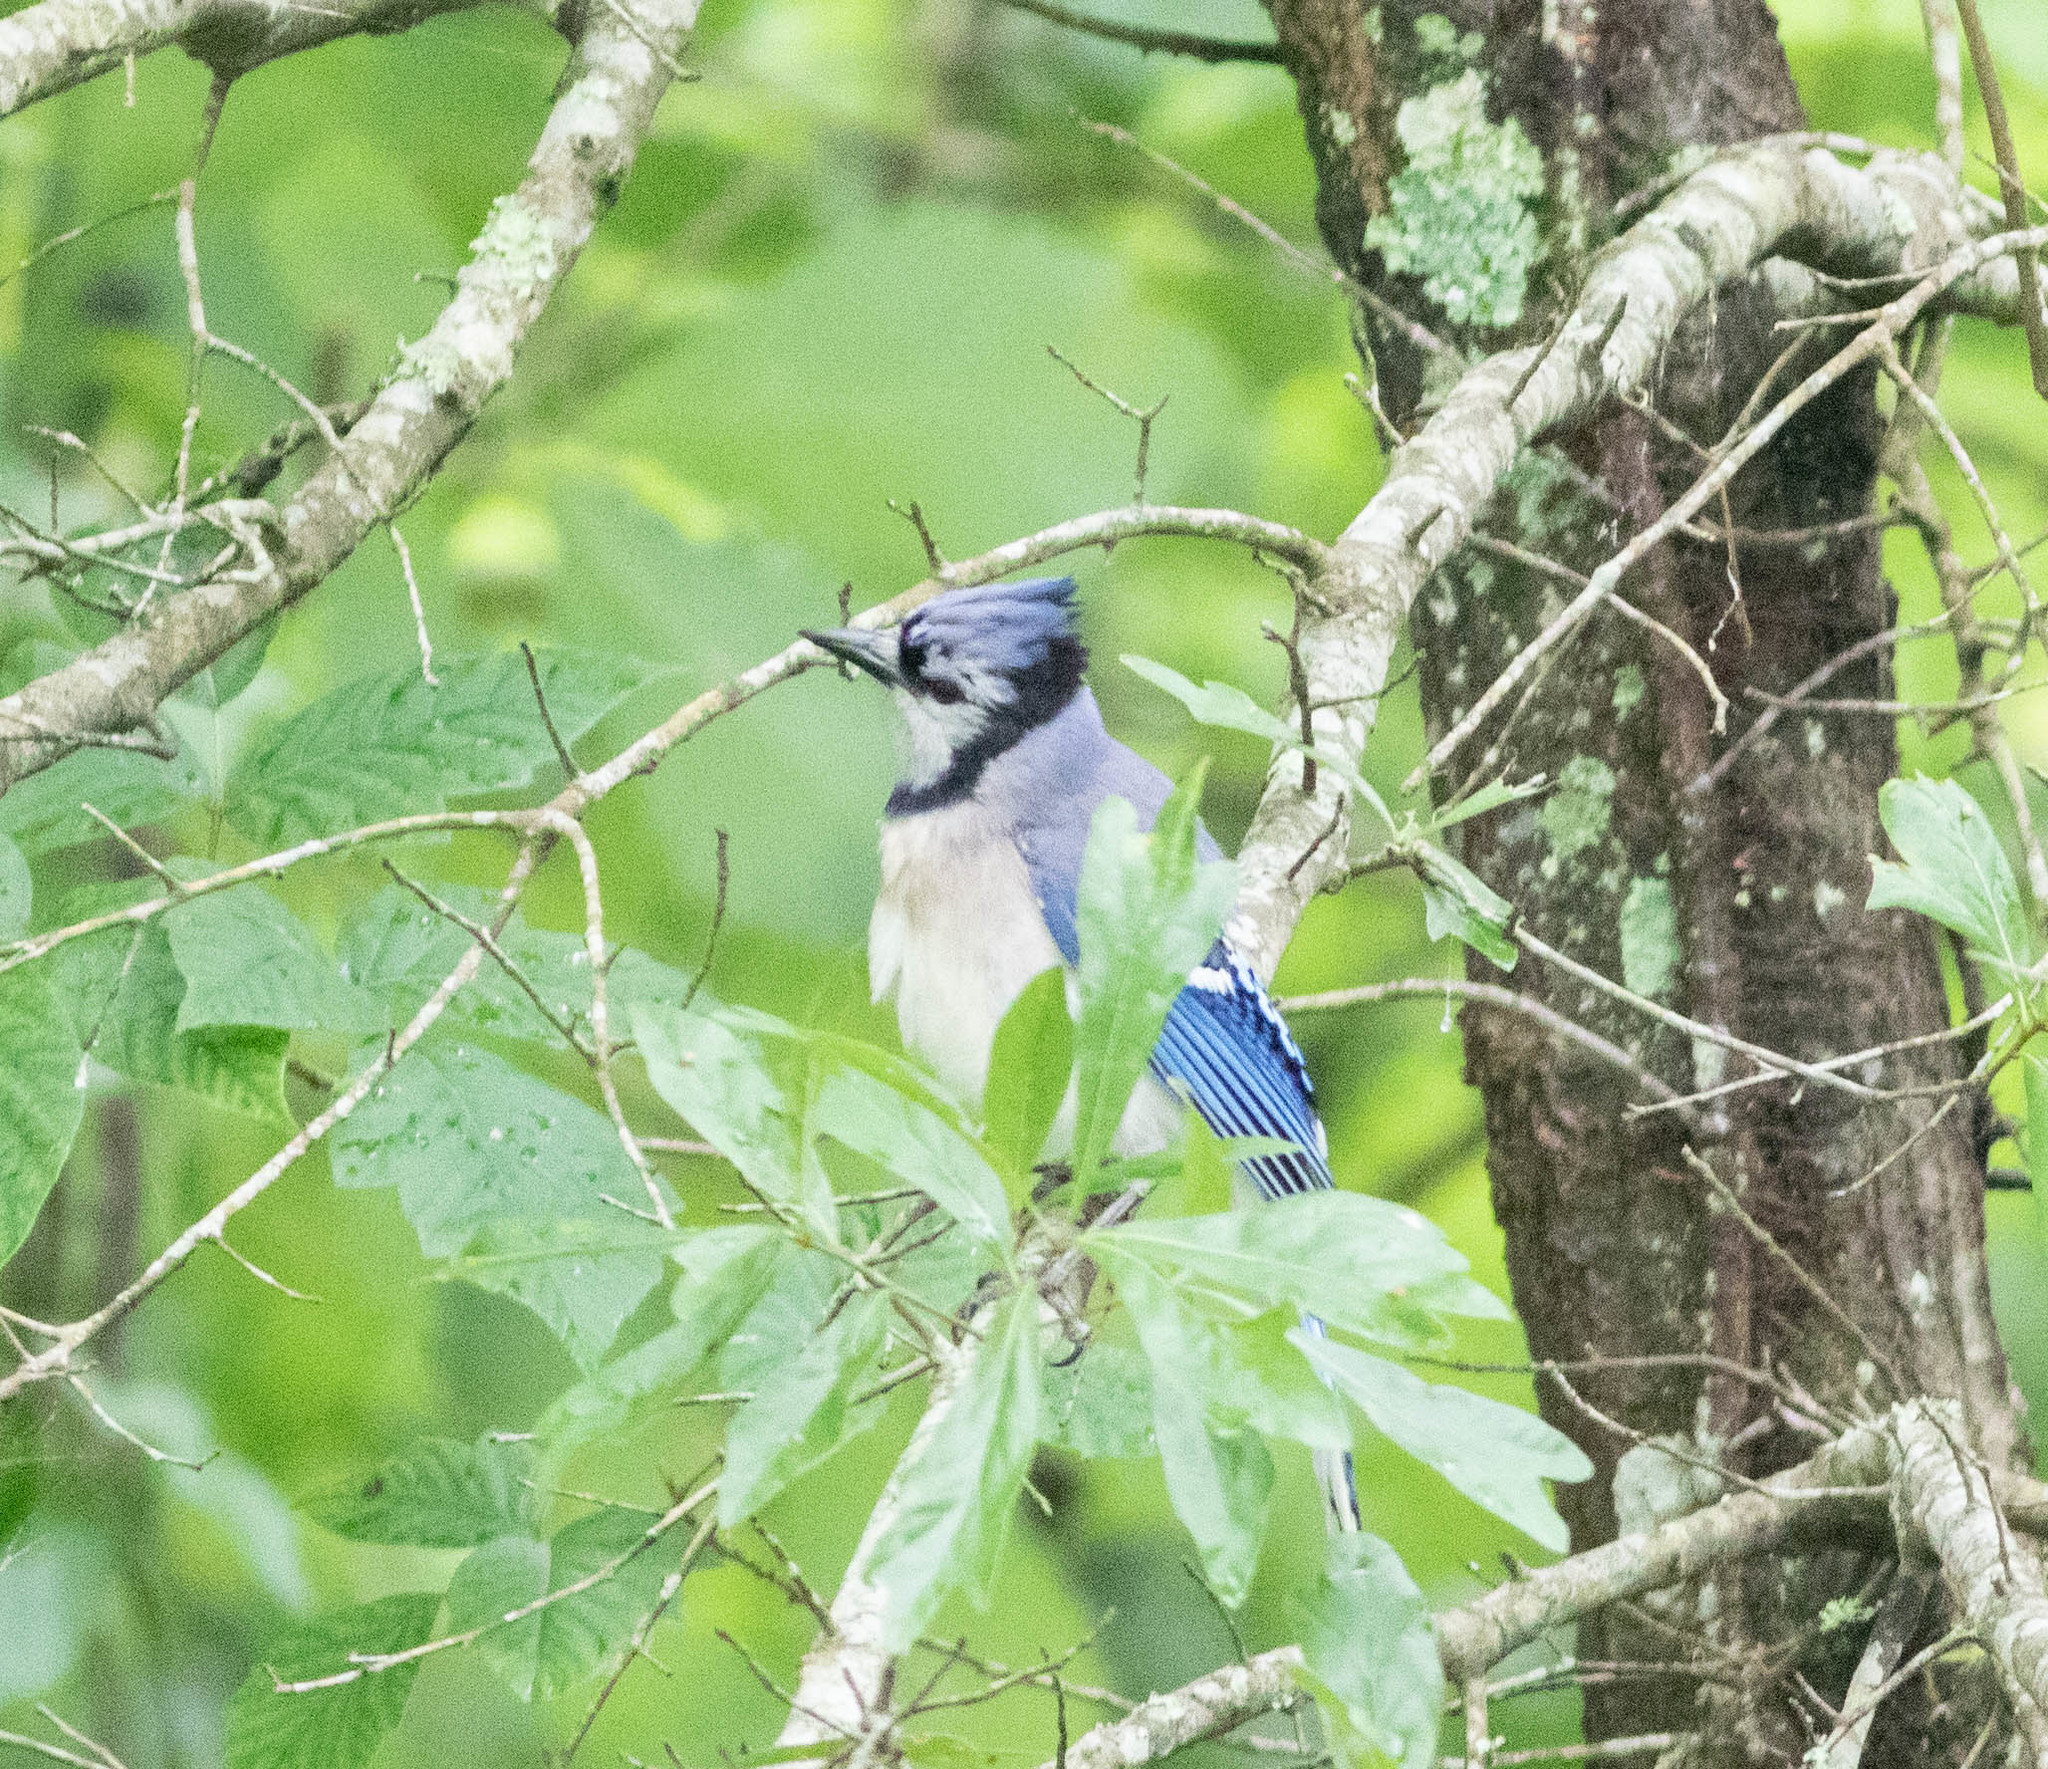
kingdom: Animalia
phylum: Chordata
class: Aves
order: Passeriformes
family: Corvidae
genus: Cyanocitta
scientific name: Cyanocitta cristata
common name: Blue jay
